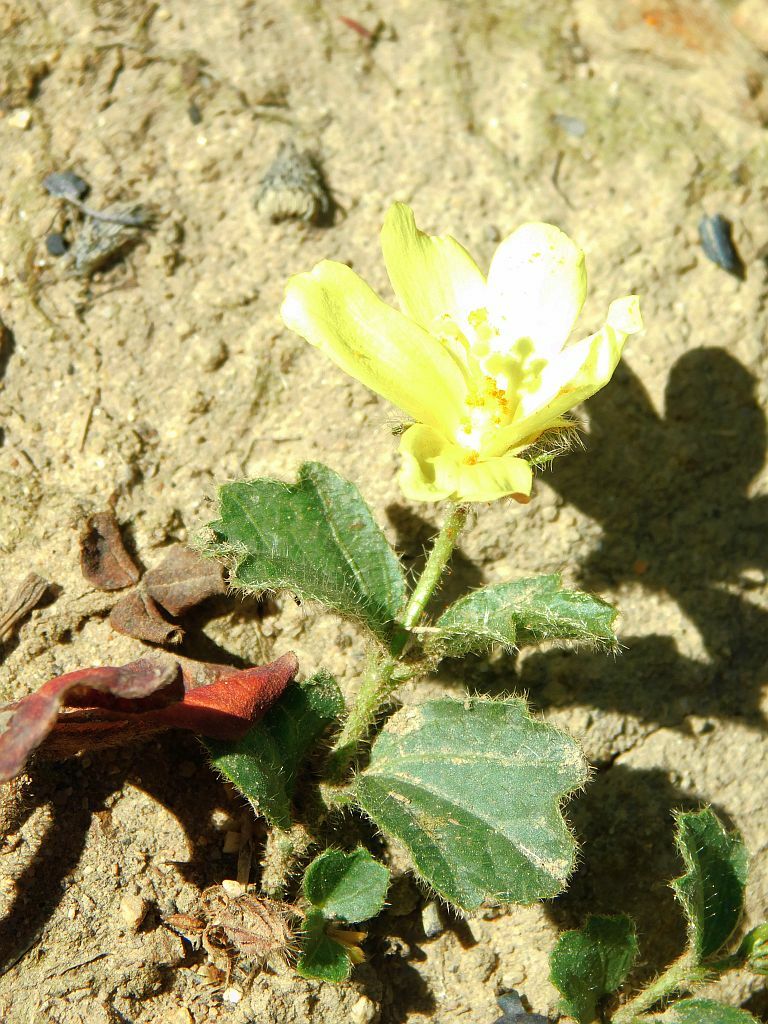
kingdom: Plantae
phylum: Tracheophyta
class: Magnoliopsida
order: Malvales
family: Malvaceae
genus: Hibiscus
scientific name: Hibiscus aethiopicus
